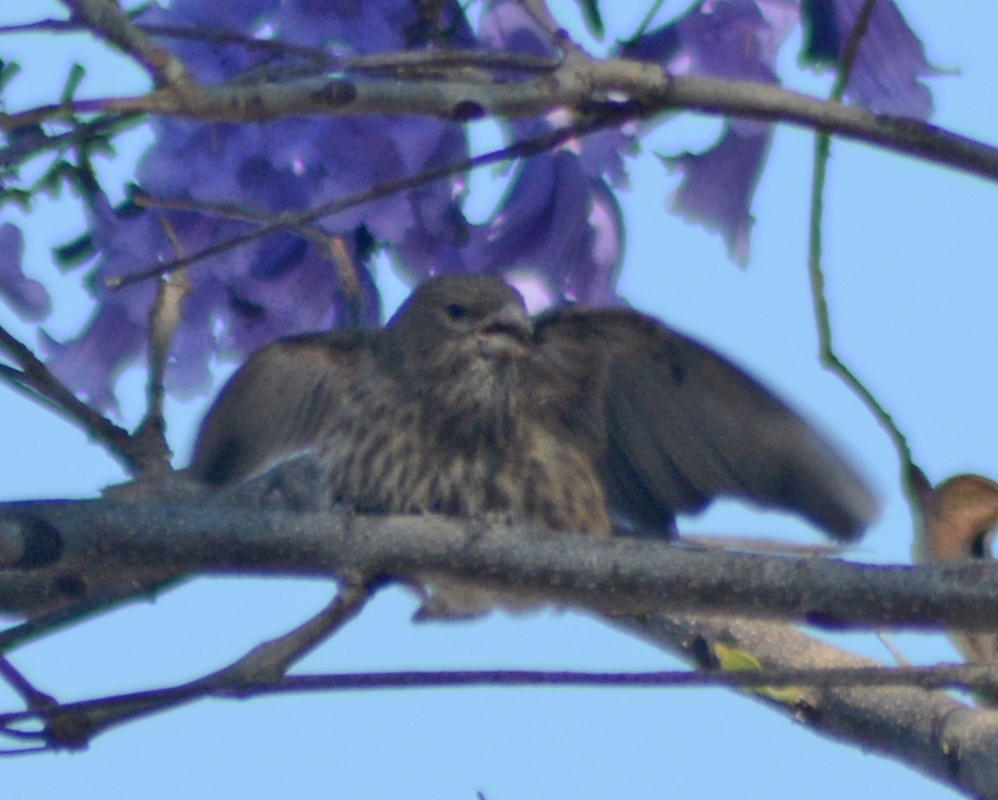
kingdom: Animalia
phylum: Chordata
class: Aves
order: Passeriformes
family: Fringillidae
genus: Haemorhous
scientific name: Haemorhous mexicanus
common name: House finch
